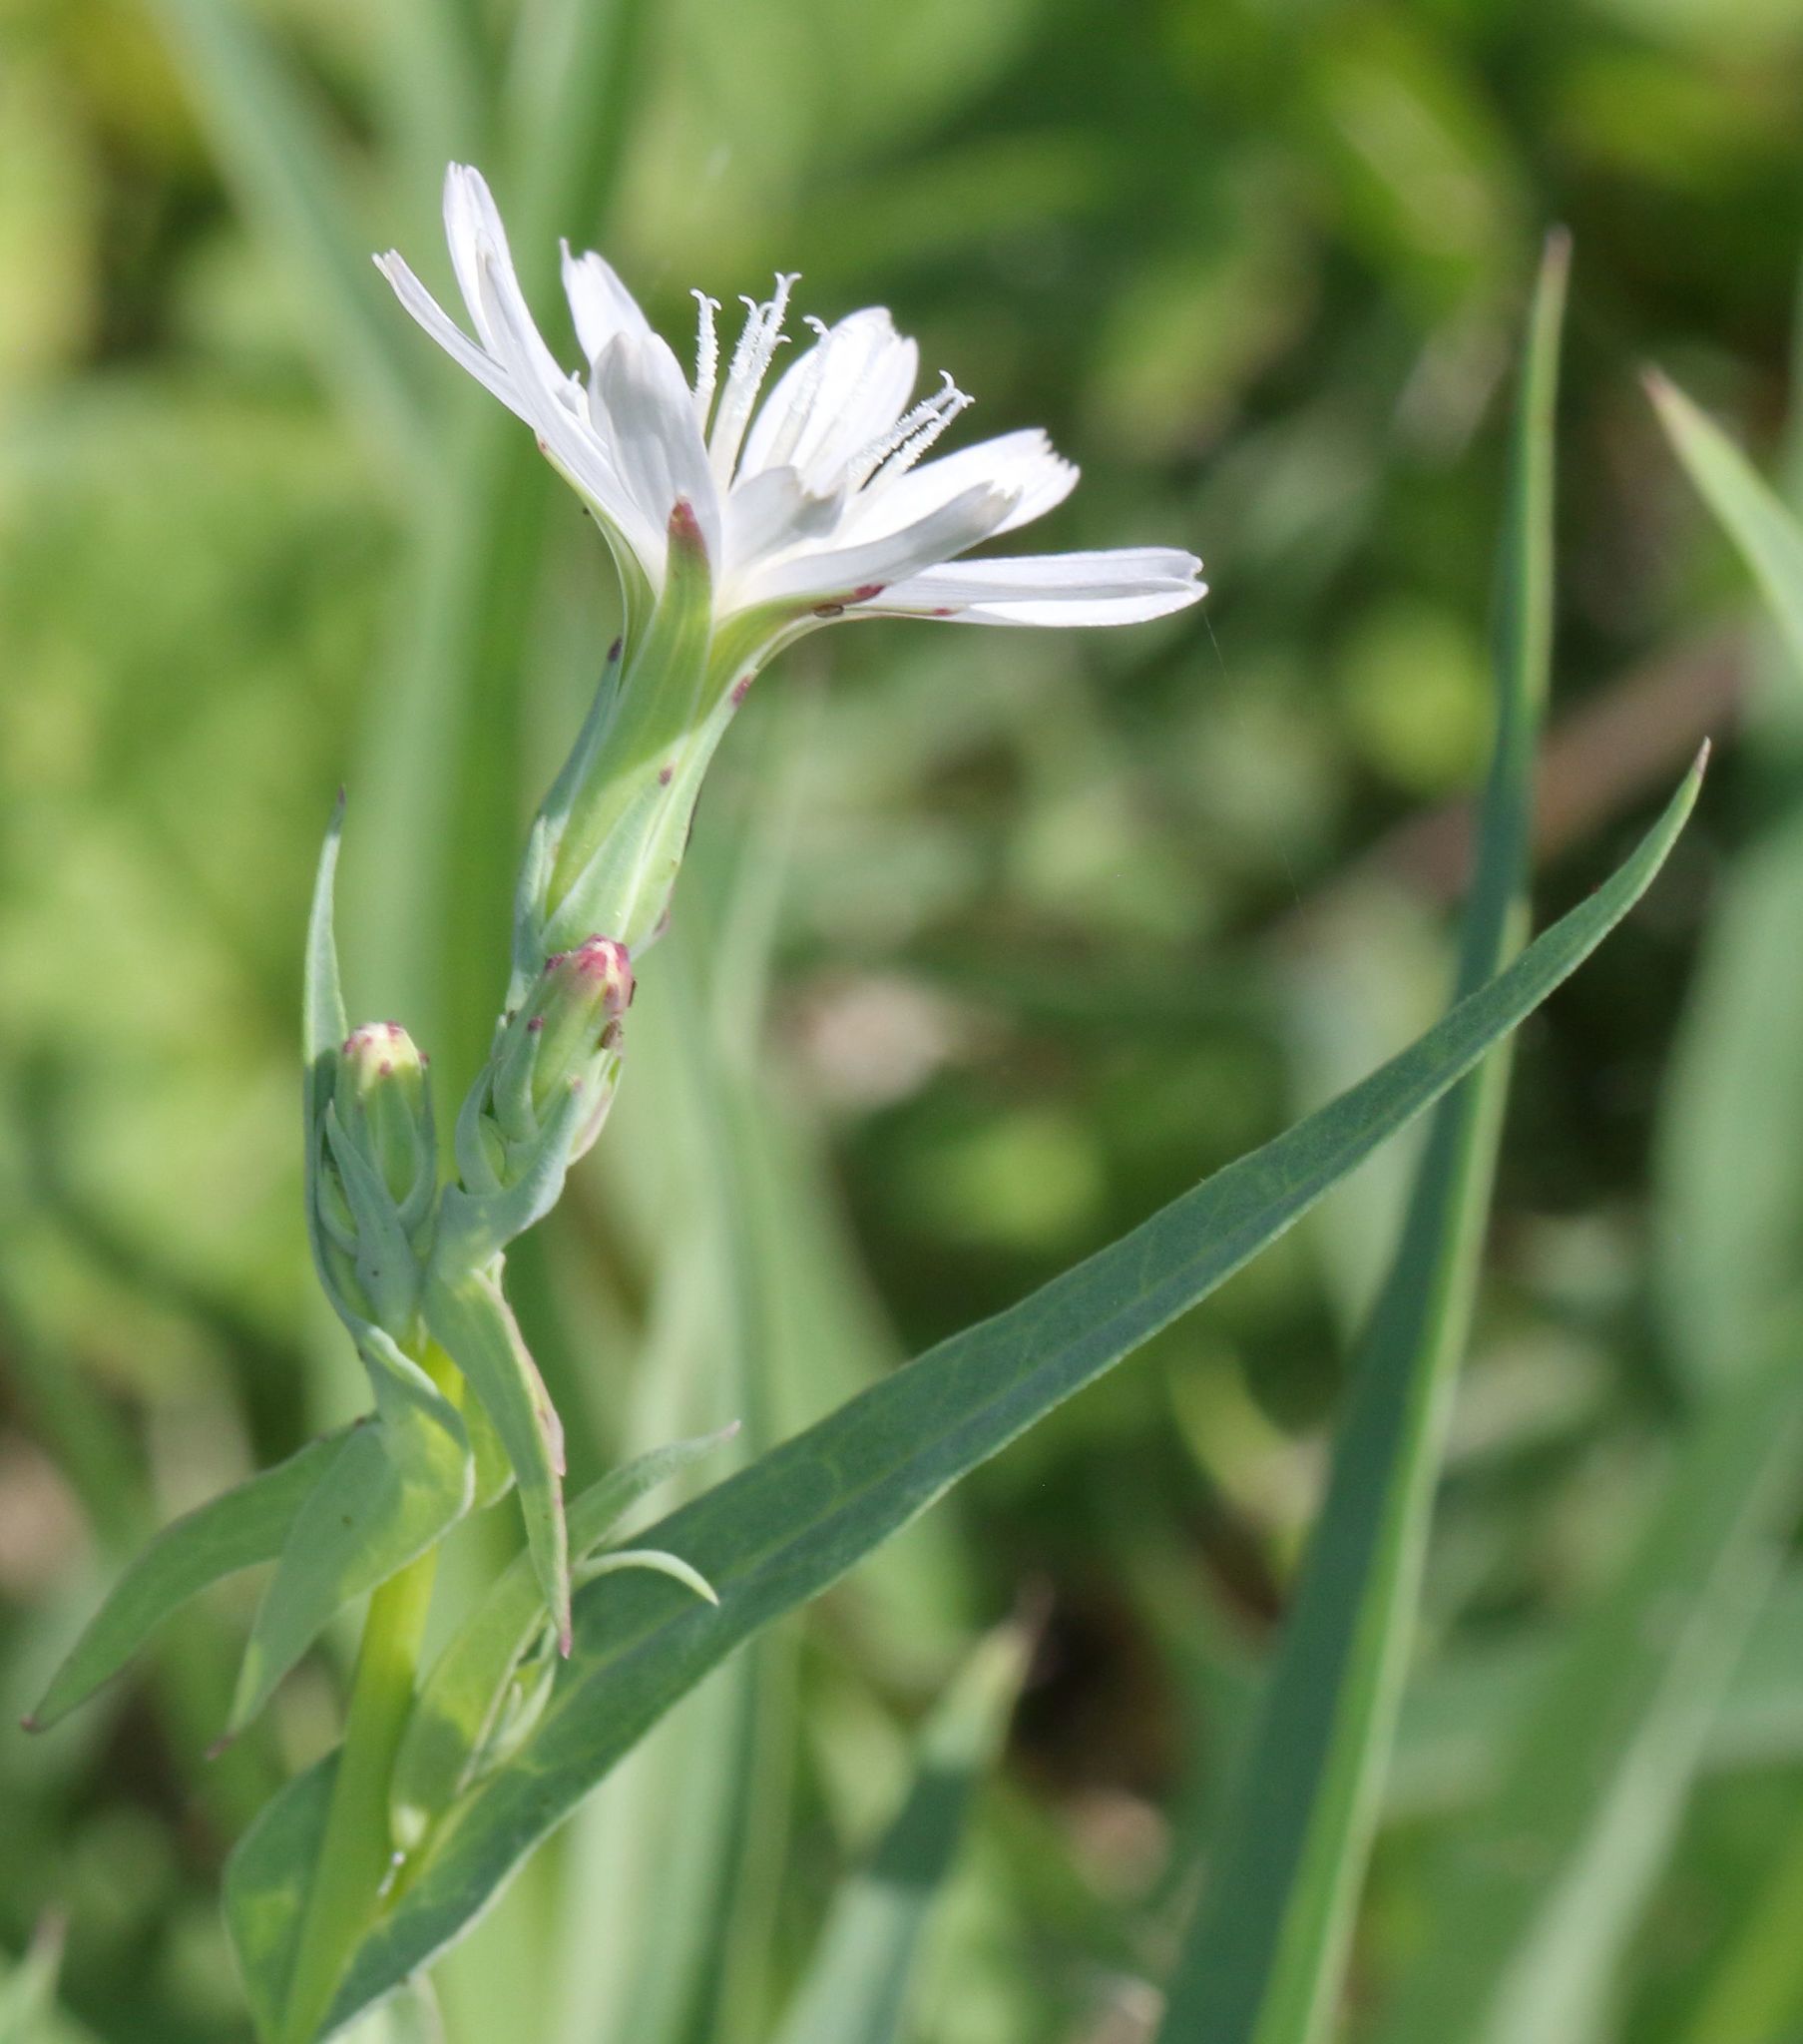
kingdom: Plantae
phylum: Tracheophyta
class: Magnoliopsida
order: Asterales
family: Asteraceae
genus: Lactuca
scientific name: Lactuca inermis
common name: Wild lettuce
